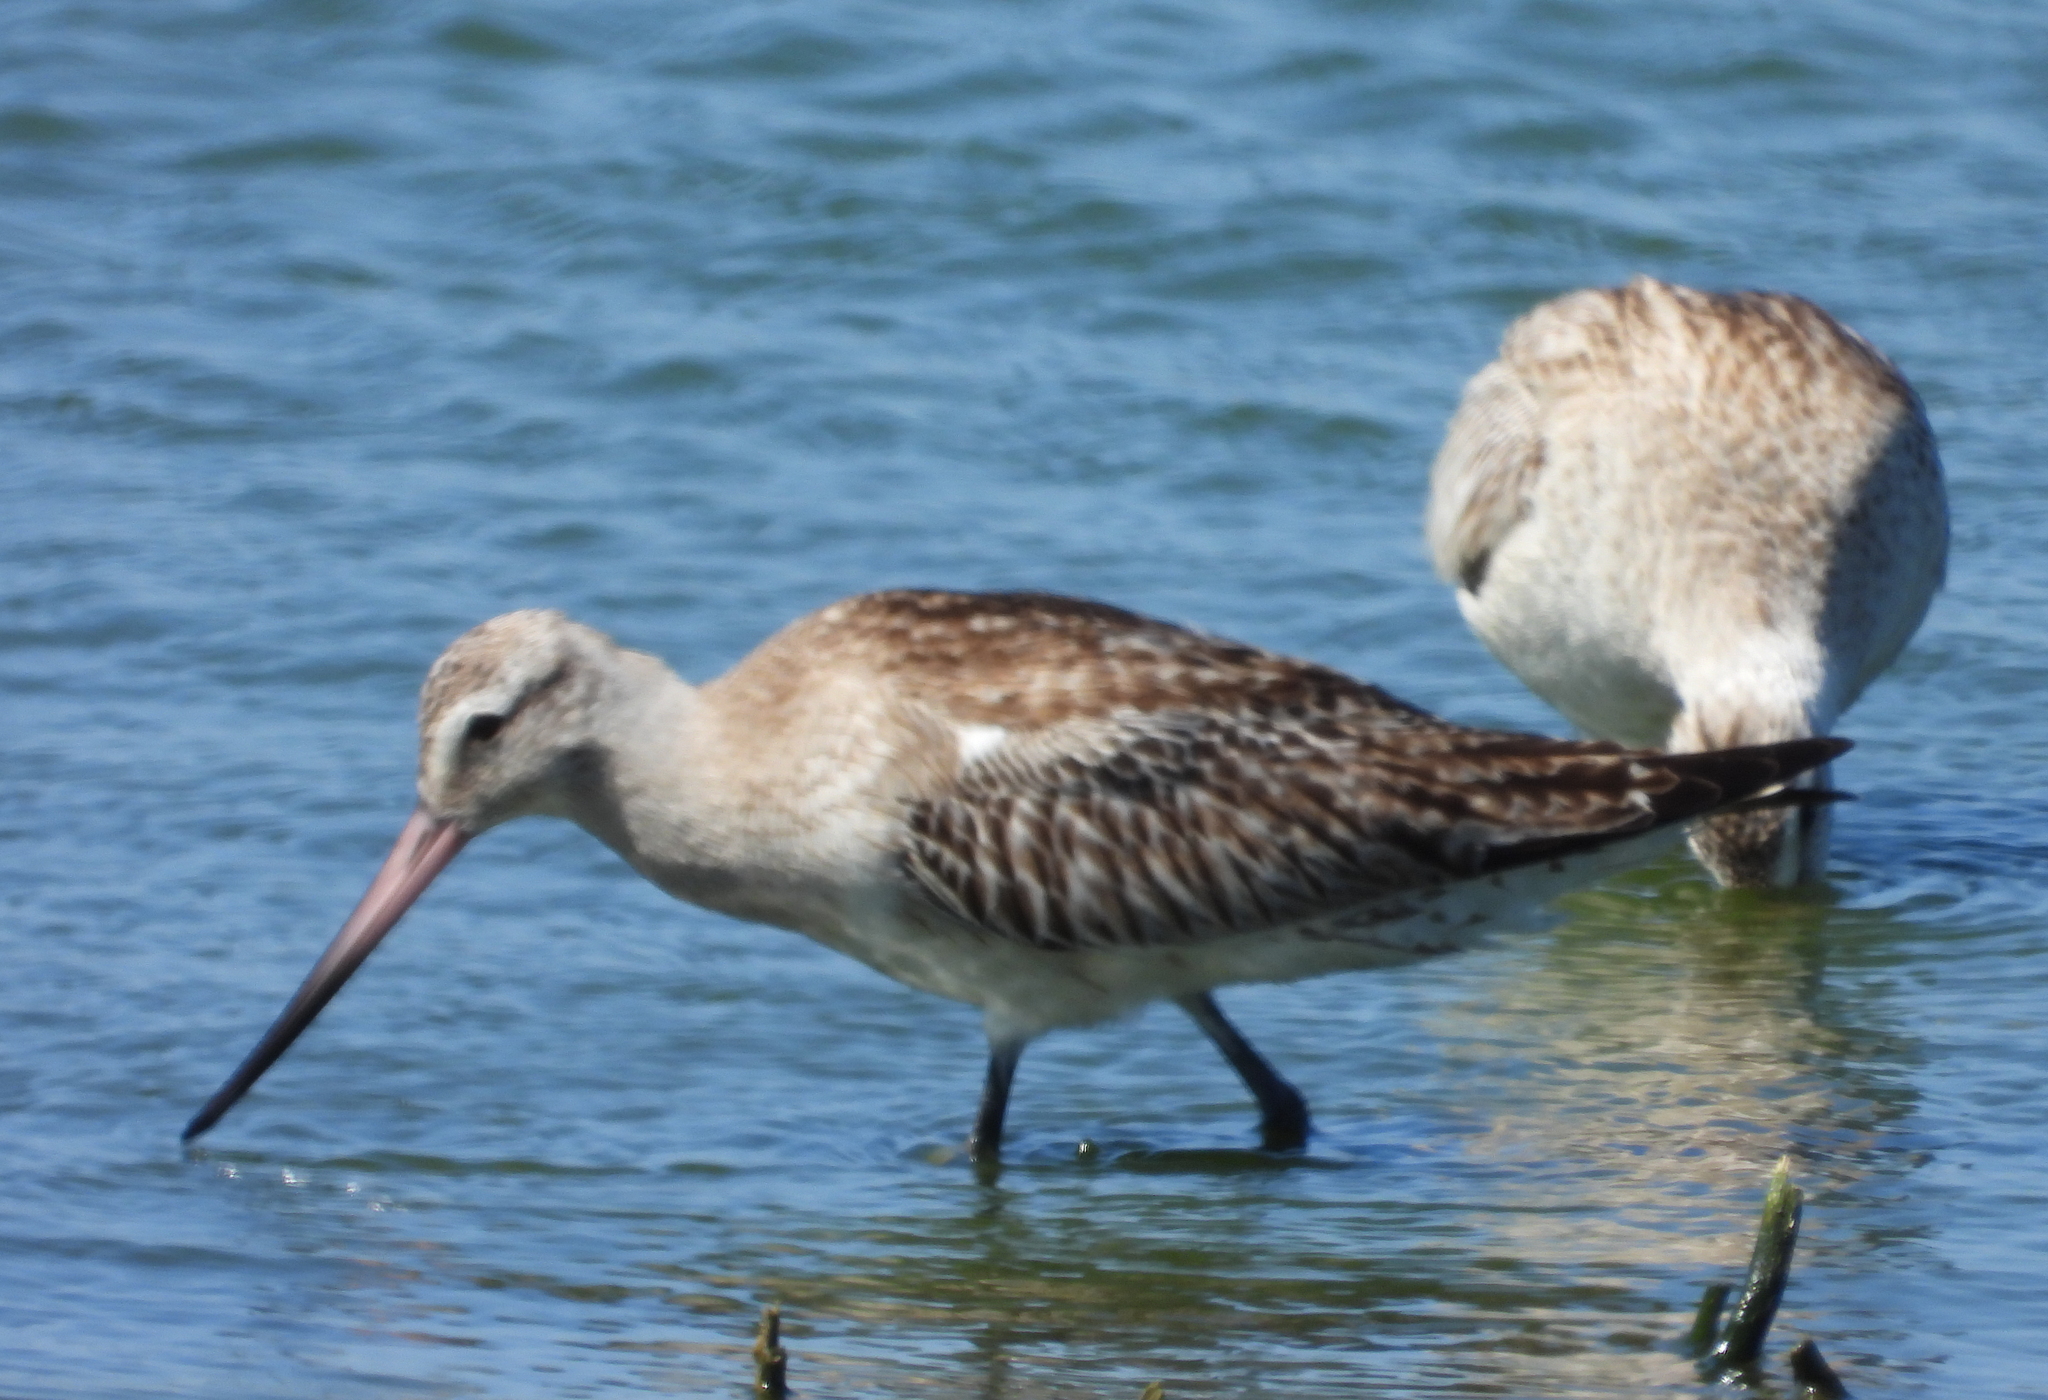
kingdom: Animalia
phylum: Chordata
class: Aves
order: Charadriiformes
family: Scolopacidae
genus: Limosa
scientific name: Limosa lapponica
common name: Bar-tailed godwit
